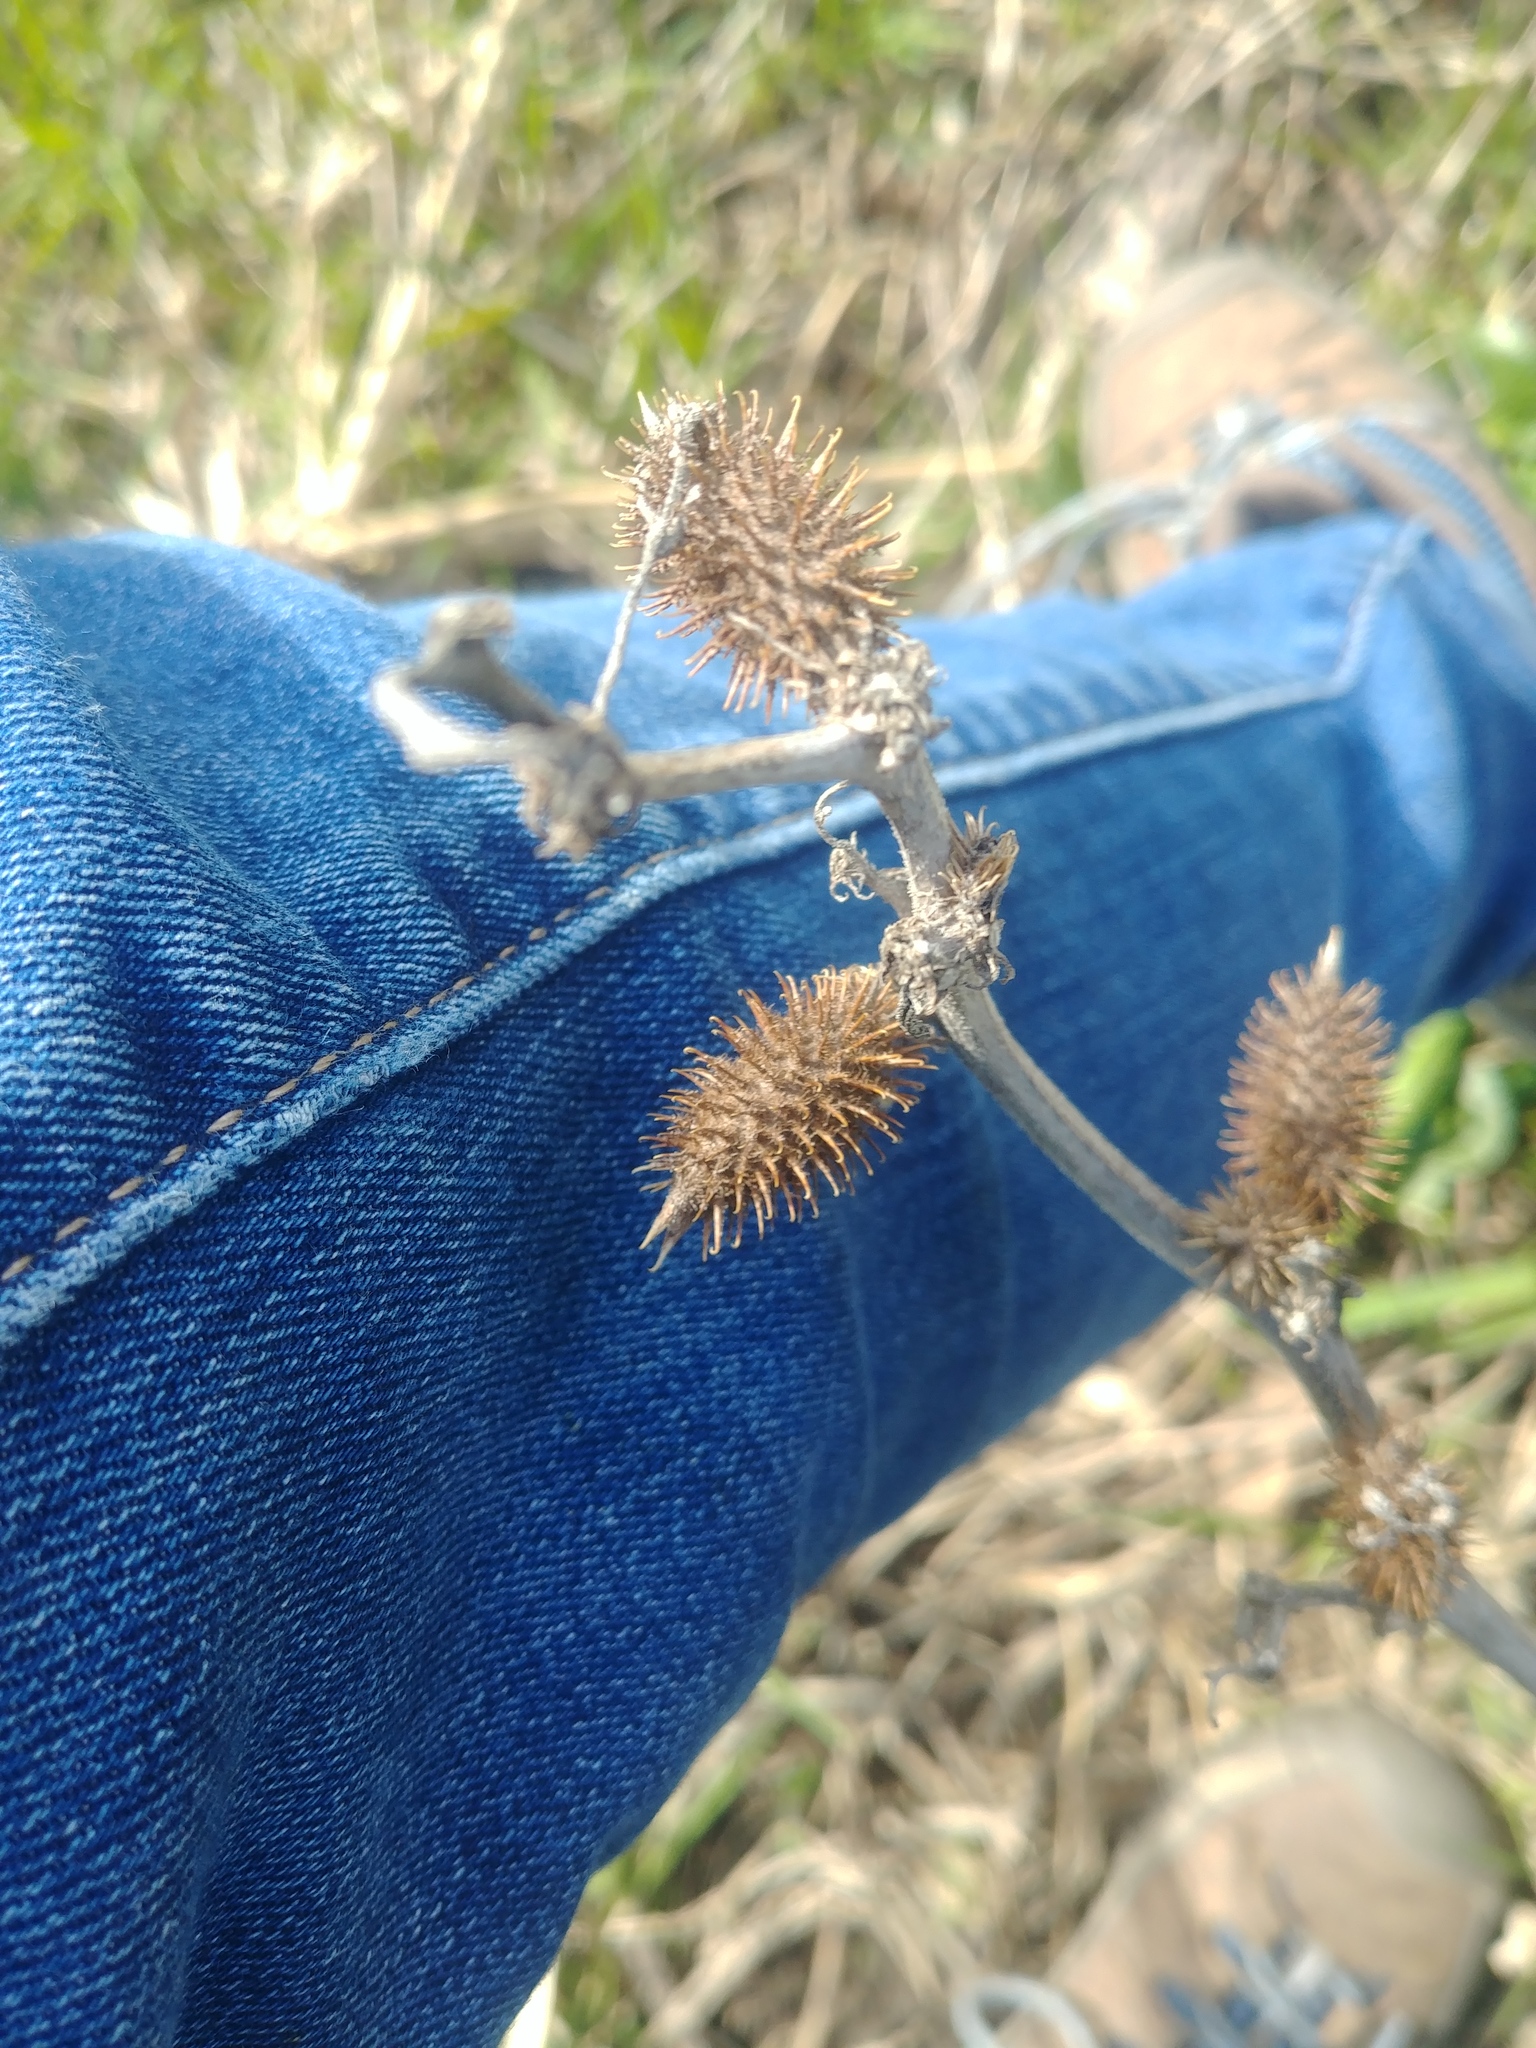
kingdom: Plantae
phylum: Tracheophyta
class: Magnoliopsida
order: Asterales
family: Asteraceae
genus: Xanthium
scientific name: Xanthium strumarium
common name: Rough cocklebur
